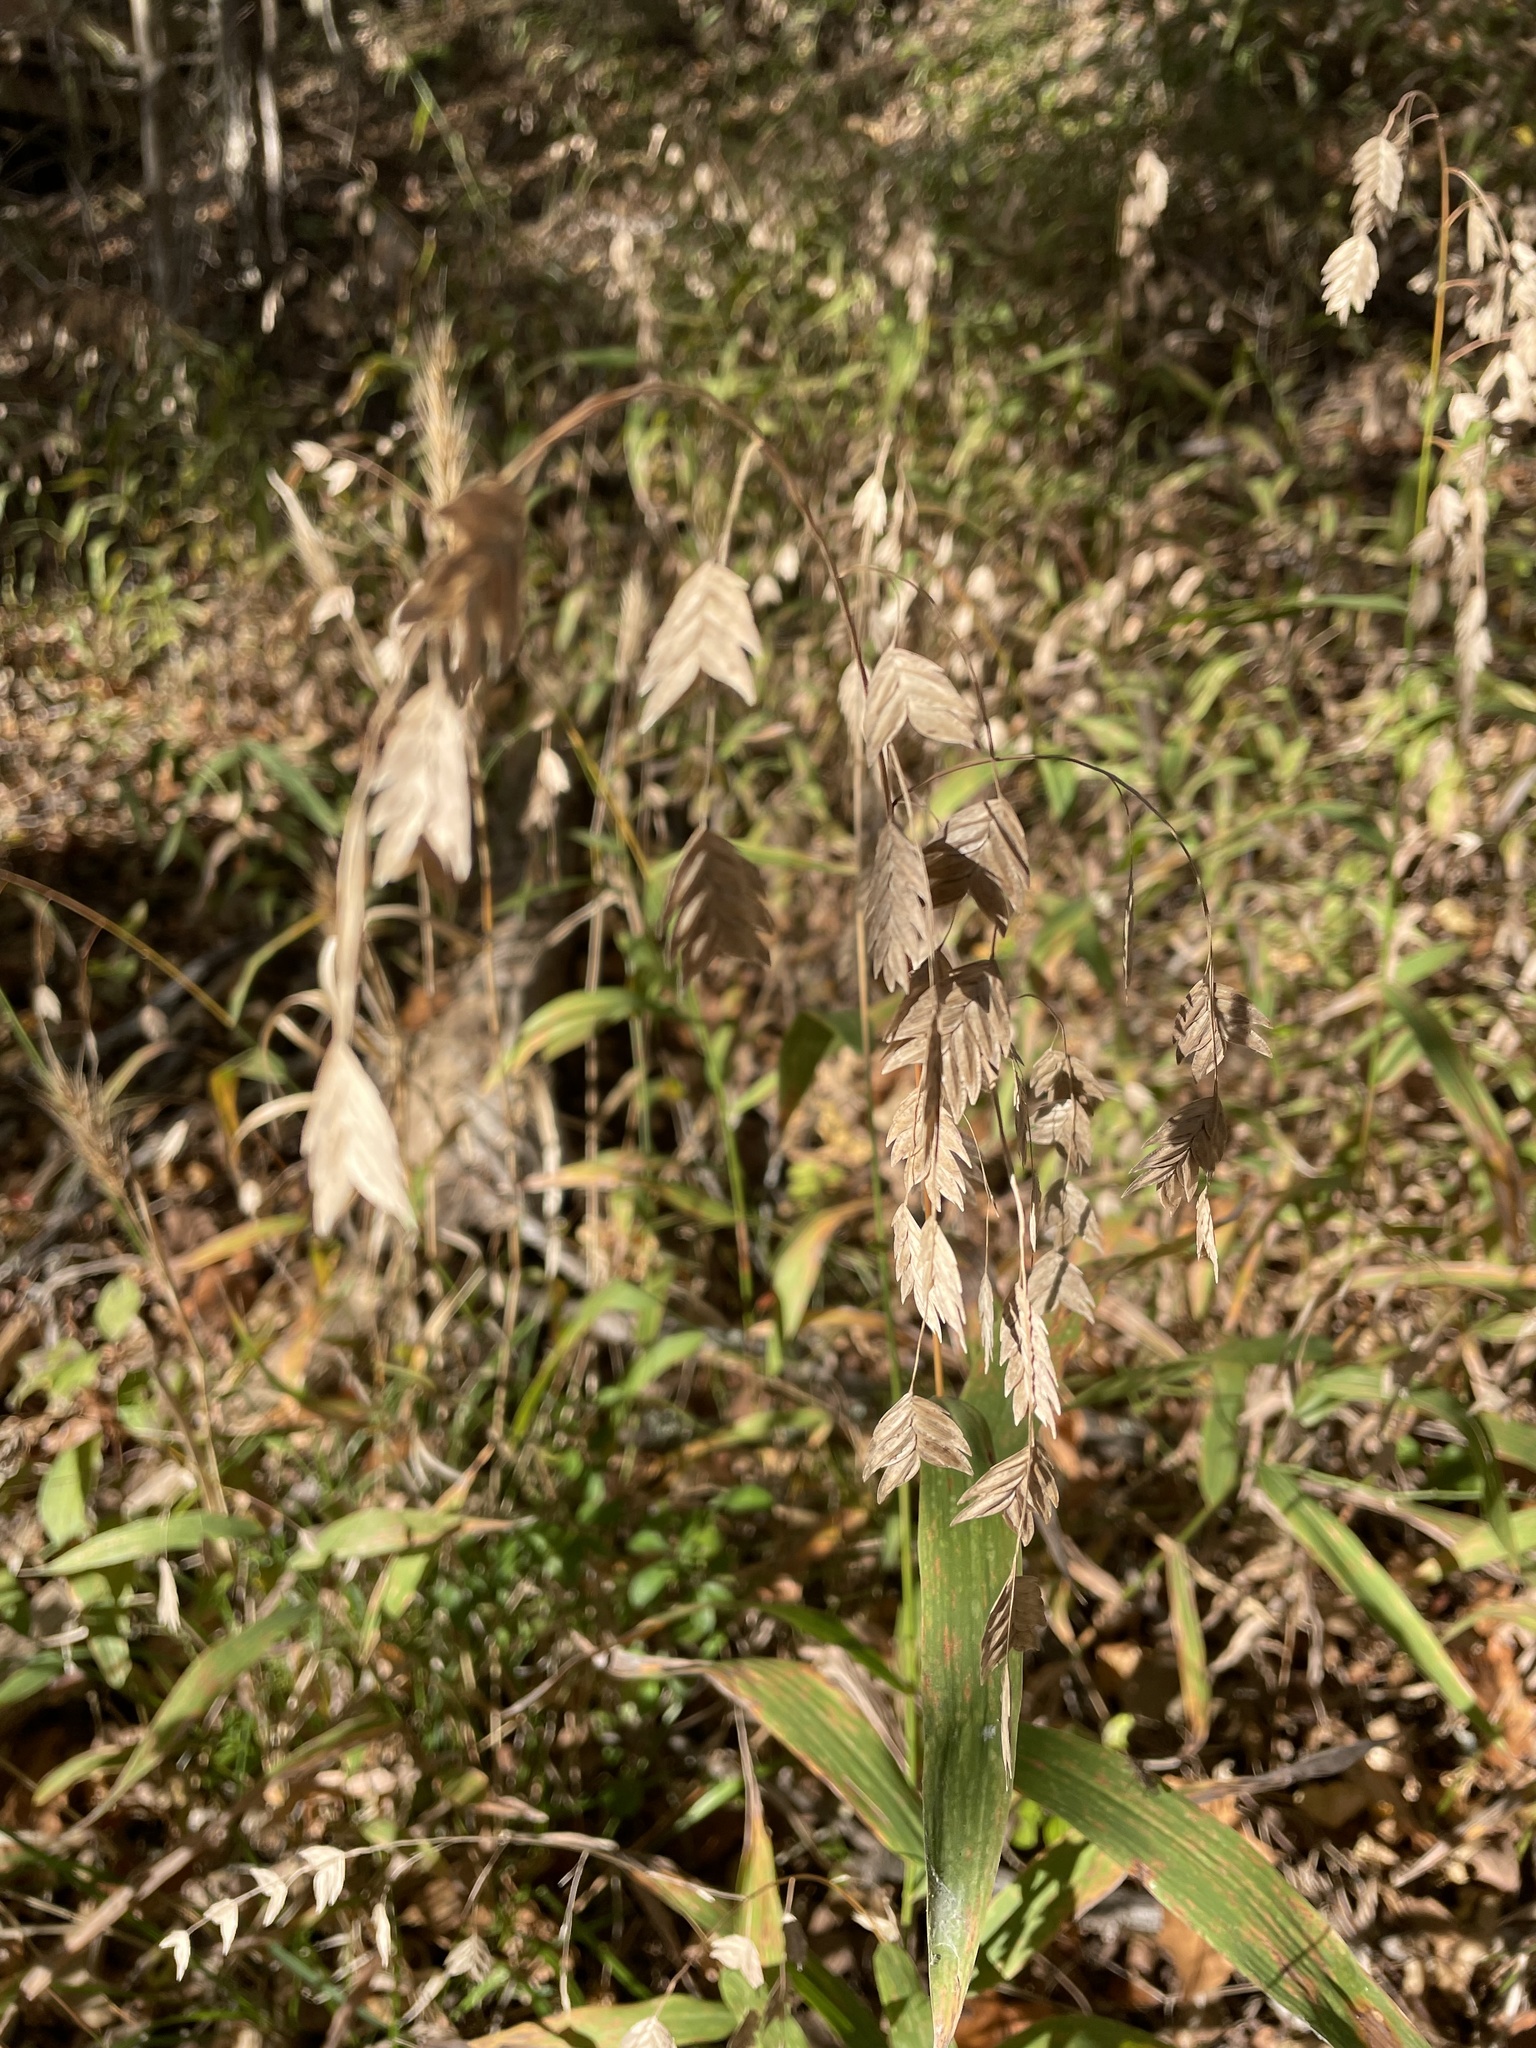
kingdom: Plantae
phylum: Tracheophyta
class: Liliopsida
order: Poales
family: Poaceae
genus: Chasmanthium
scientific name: Chasmanthium latifolium
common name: Broad-leaved chasmanthium
